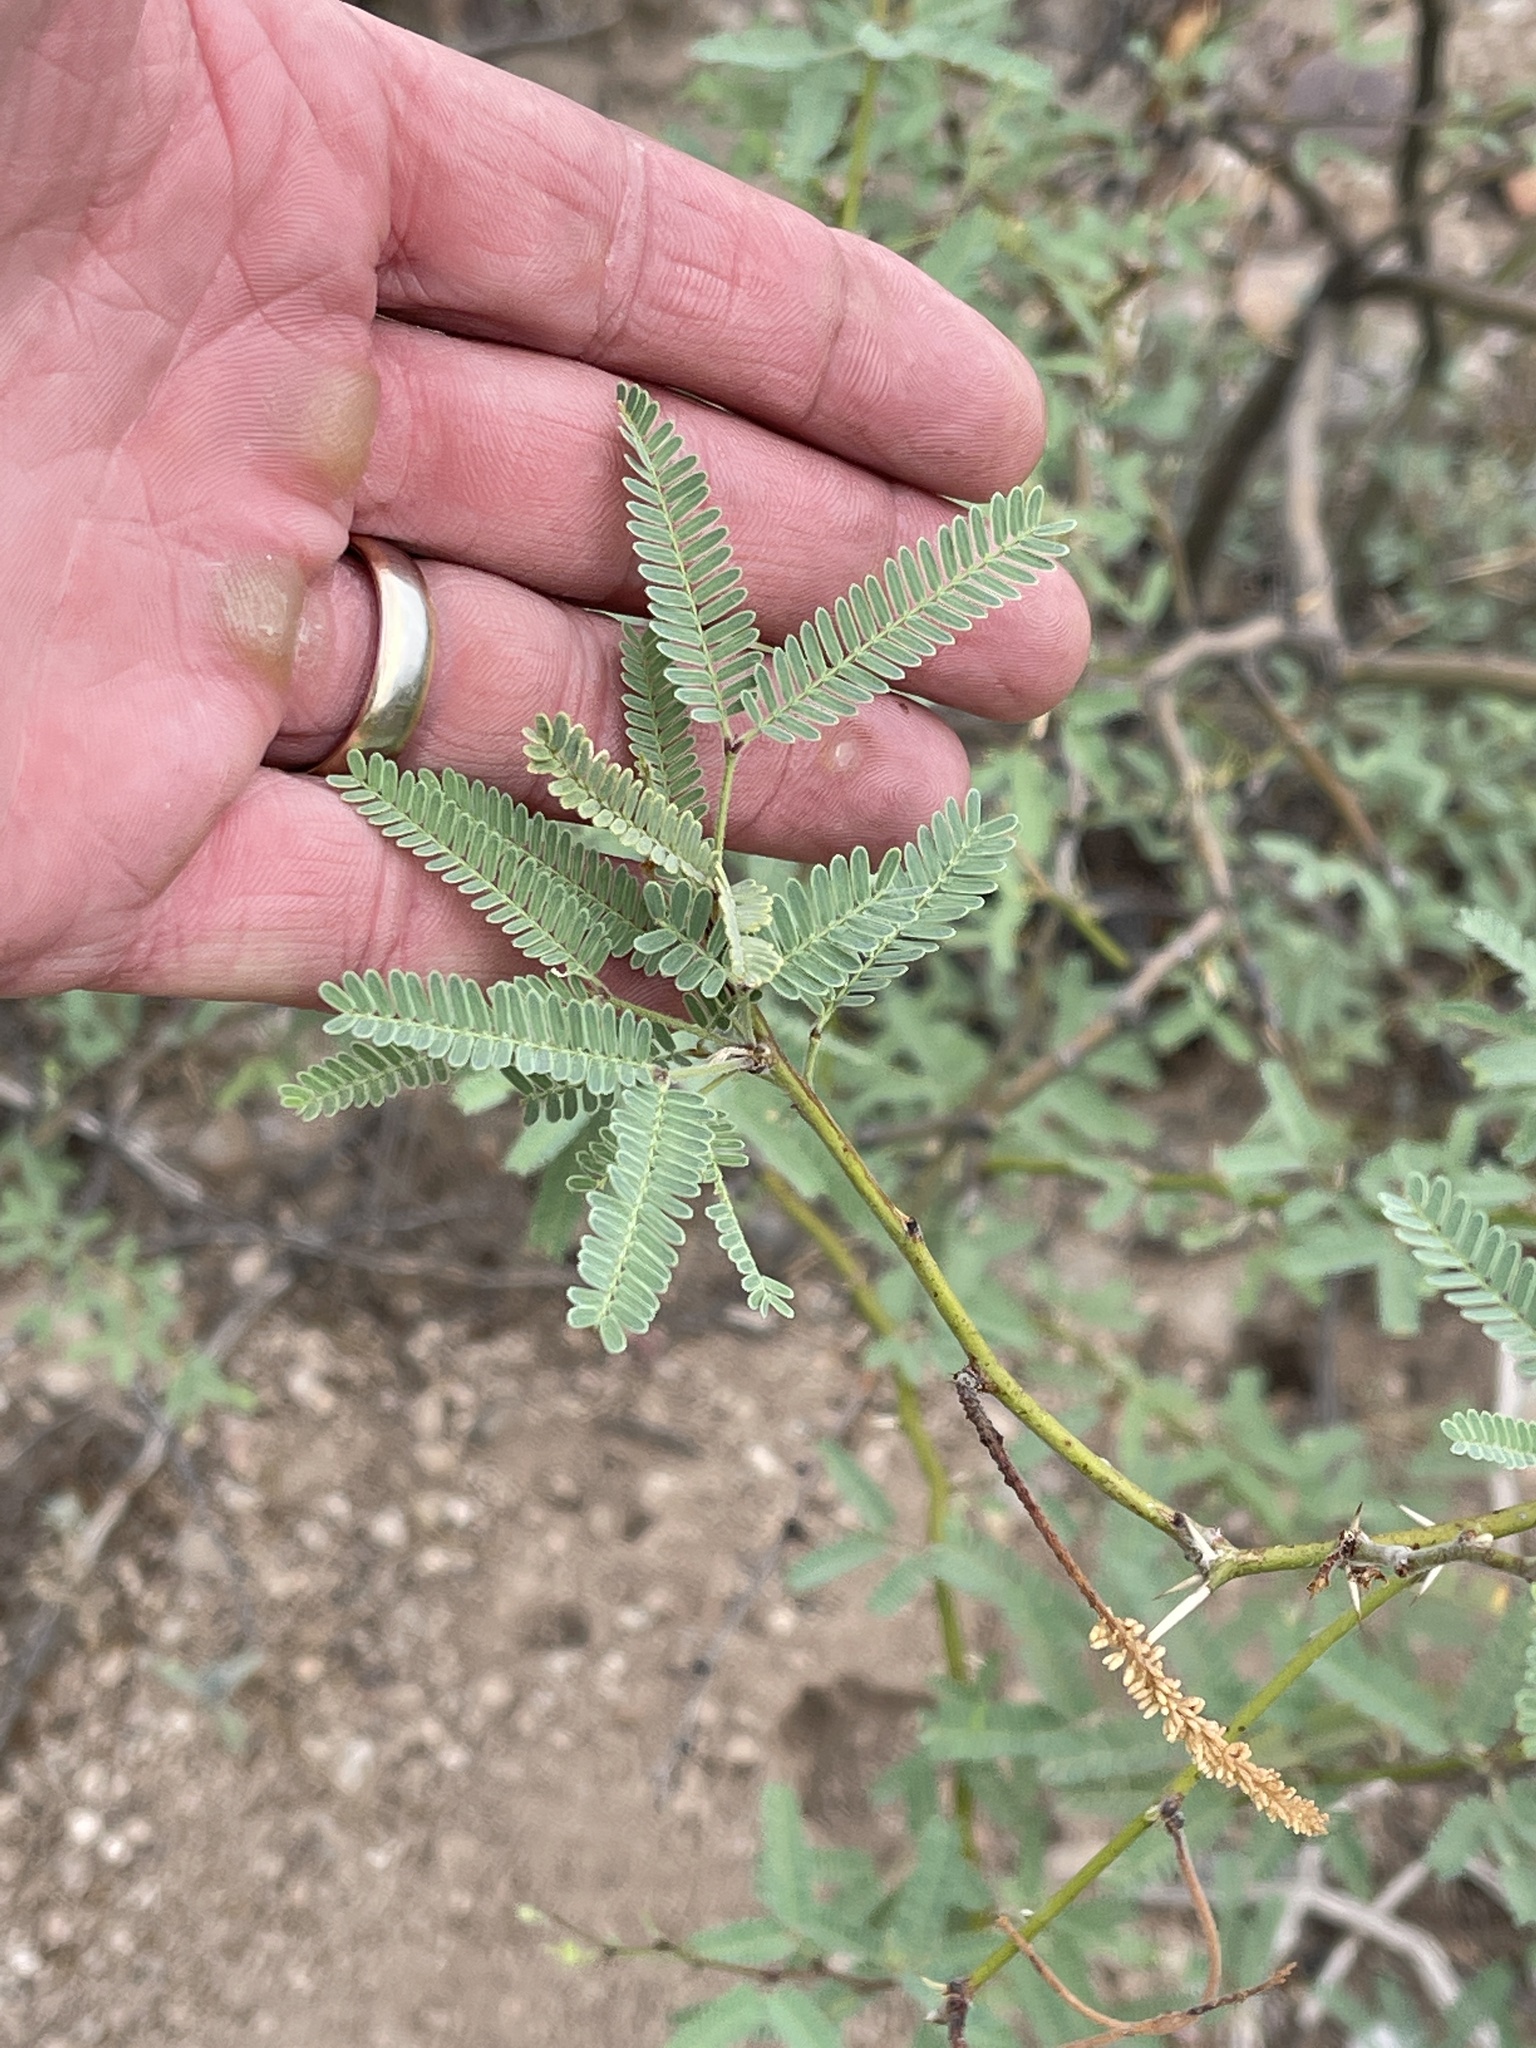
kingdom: Plantae
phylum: Tracheophyta
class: Magnoliopsida
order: Fabales
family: Fabaceae
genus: Prosopis
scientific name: Prosopis velutina
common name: Velvet mesquite
